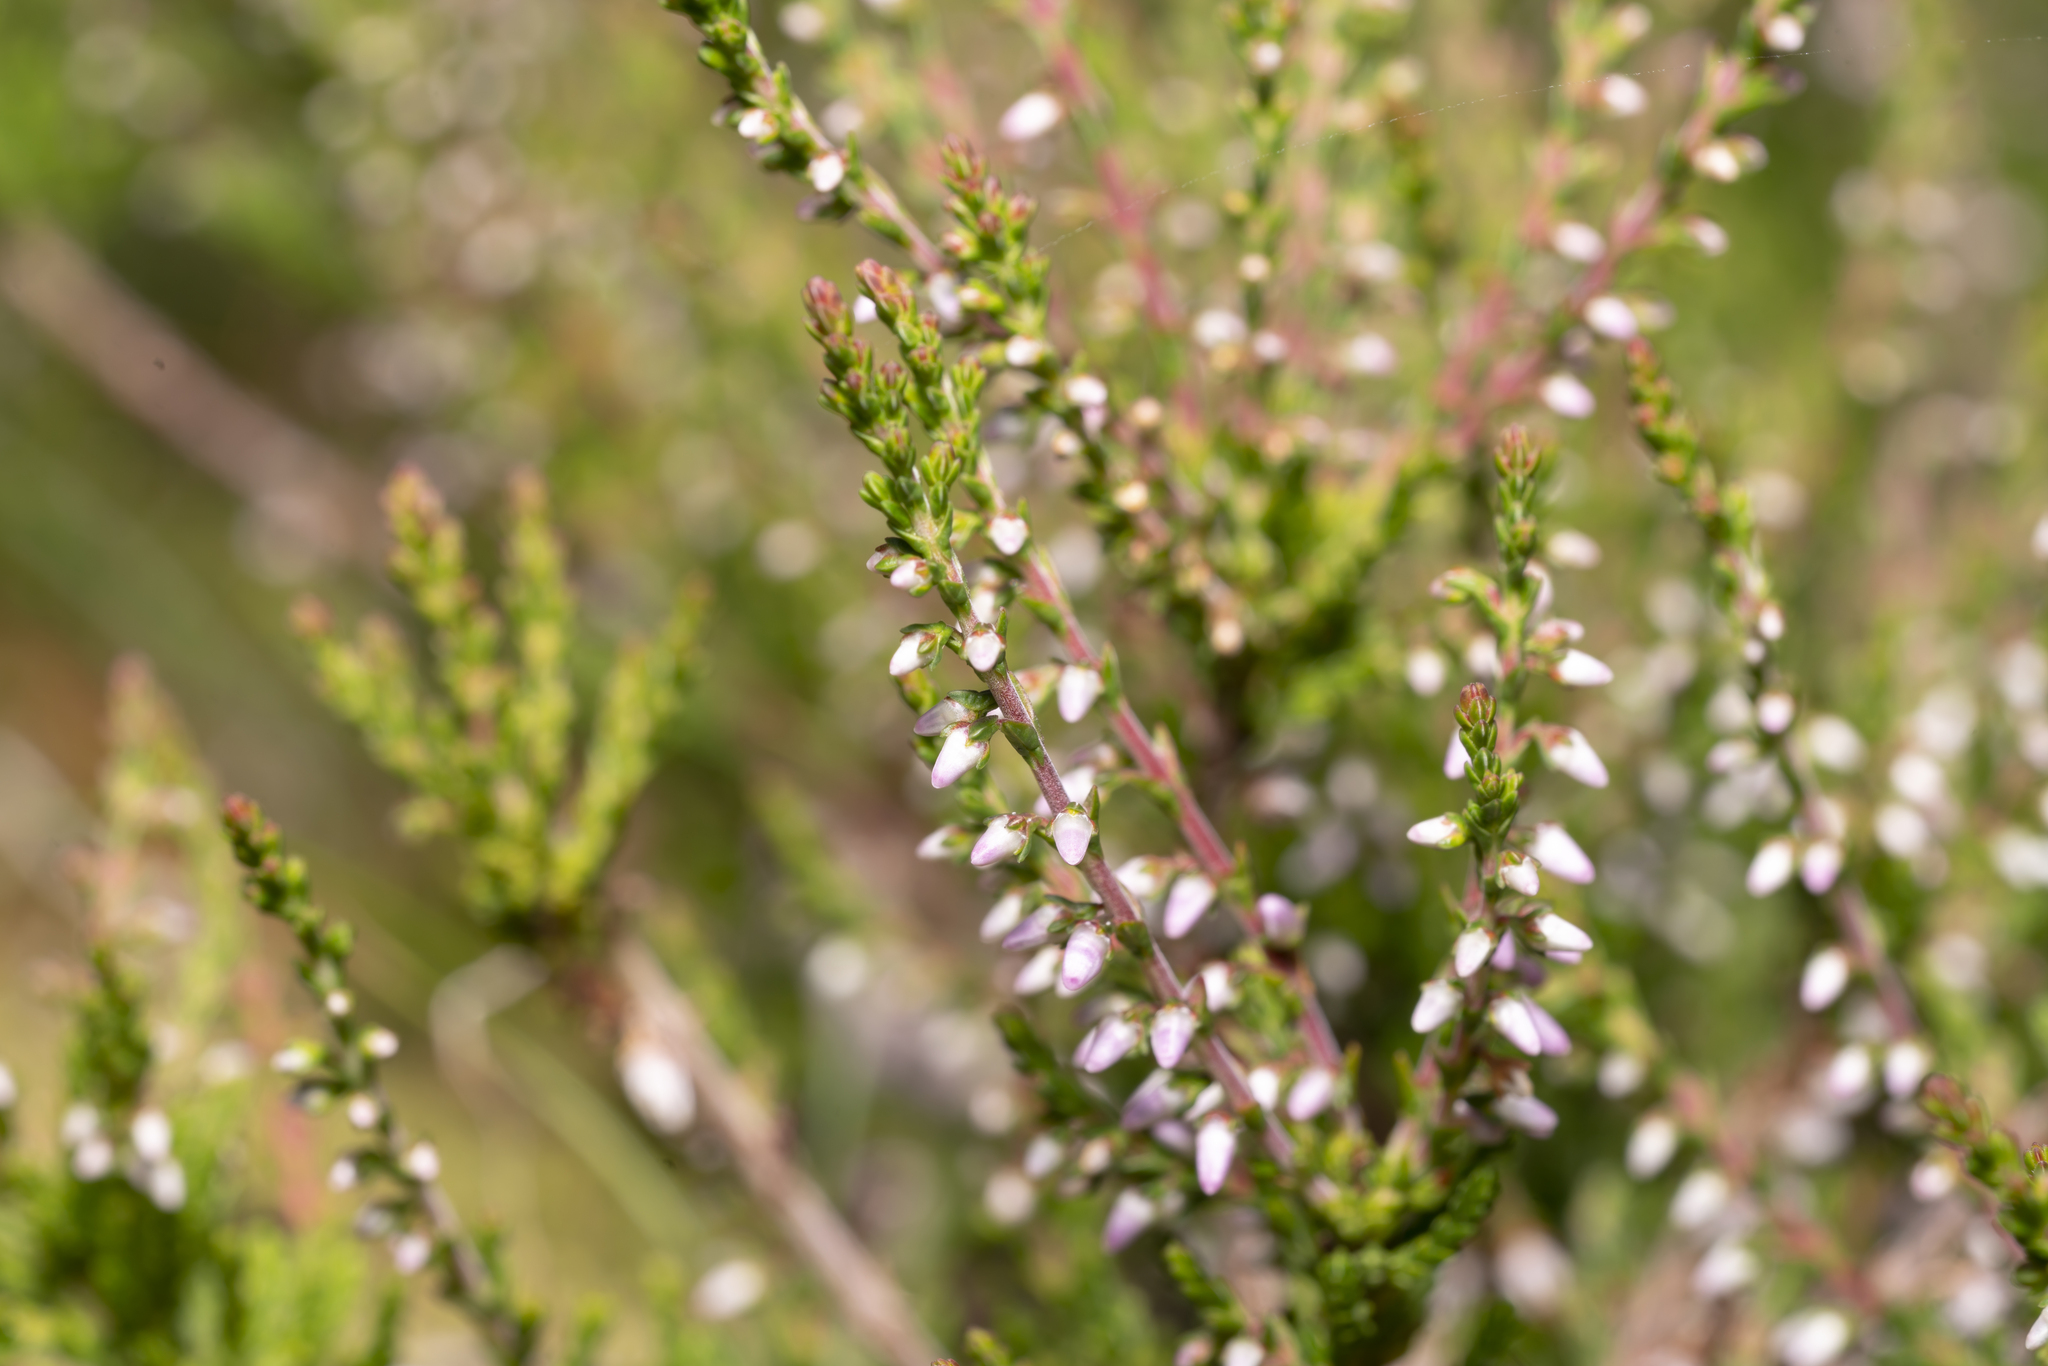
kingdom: Plantae
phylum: Tracheophyta
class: Magnoliopsida
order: Ericales
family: Ericaceae
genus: Calluna
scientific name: Calluna vulgaris
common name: Heather
